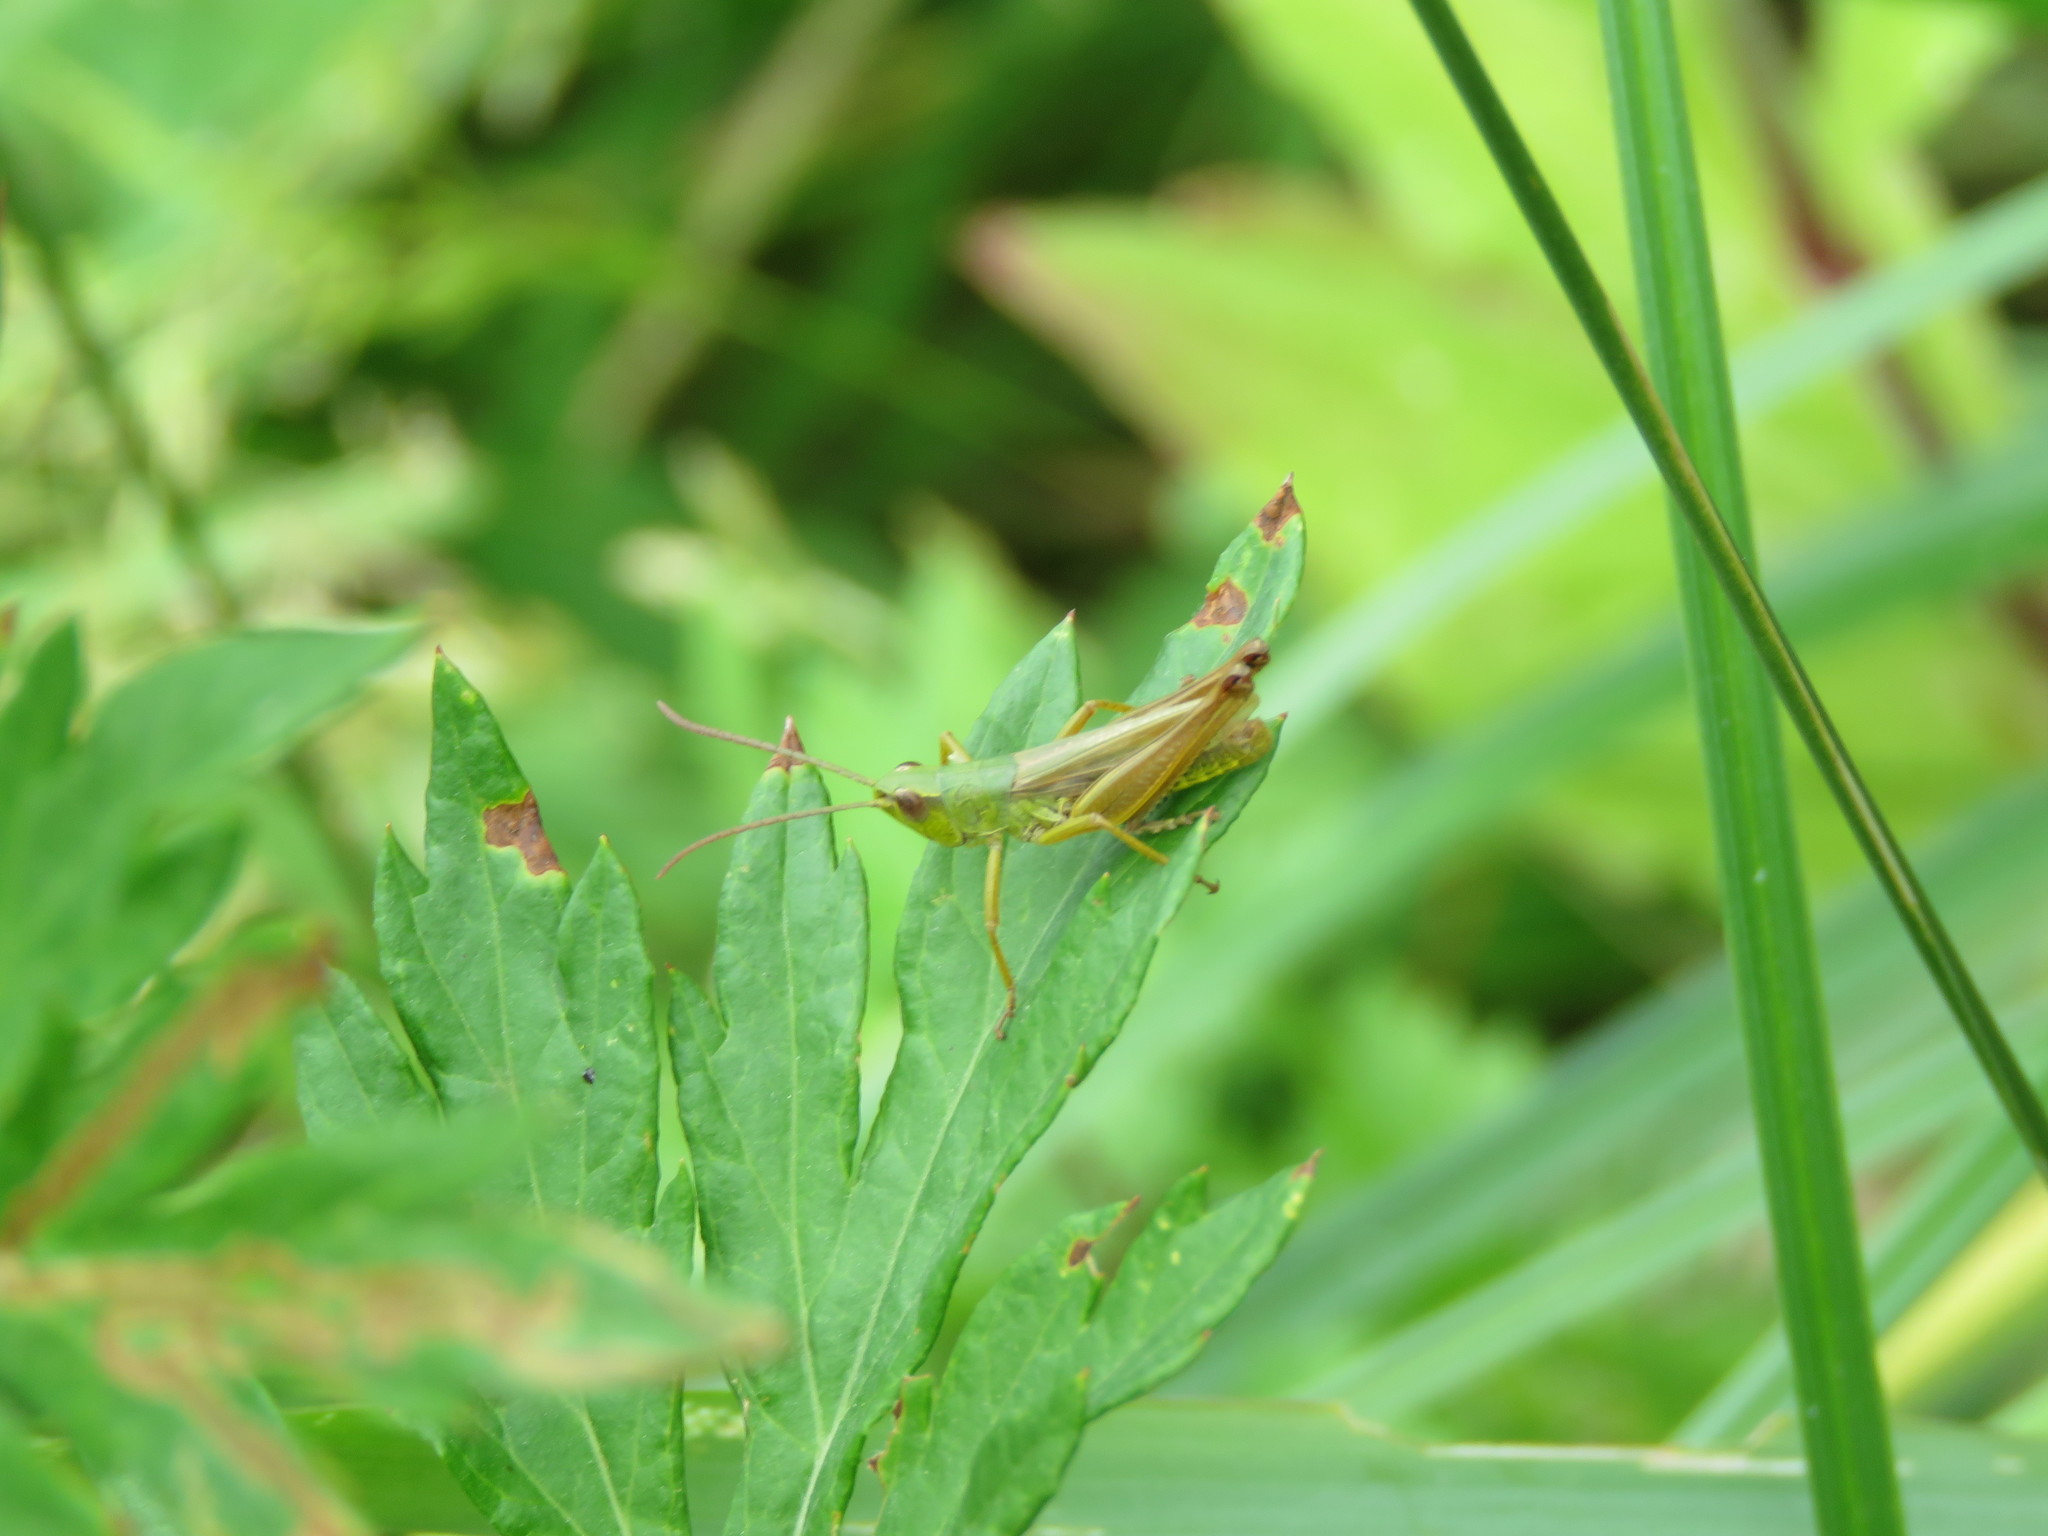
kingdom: Animalia
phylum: Arthropoda
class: Insecta
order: Orthoptera
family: Acrididae
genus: Pseudochorthippus
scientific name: Pseudochorthippus parallelus
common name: Meadow grasshopper
